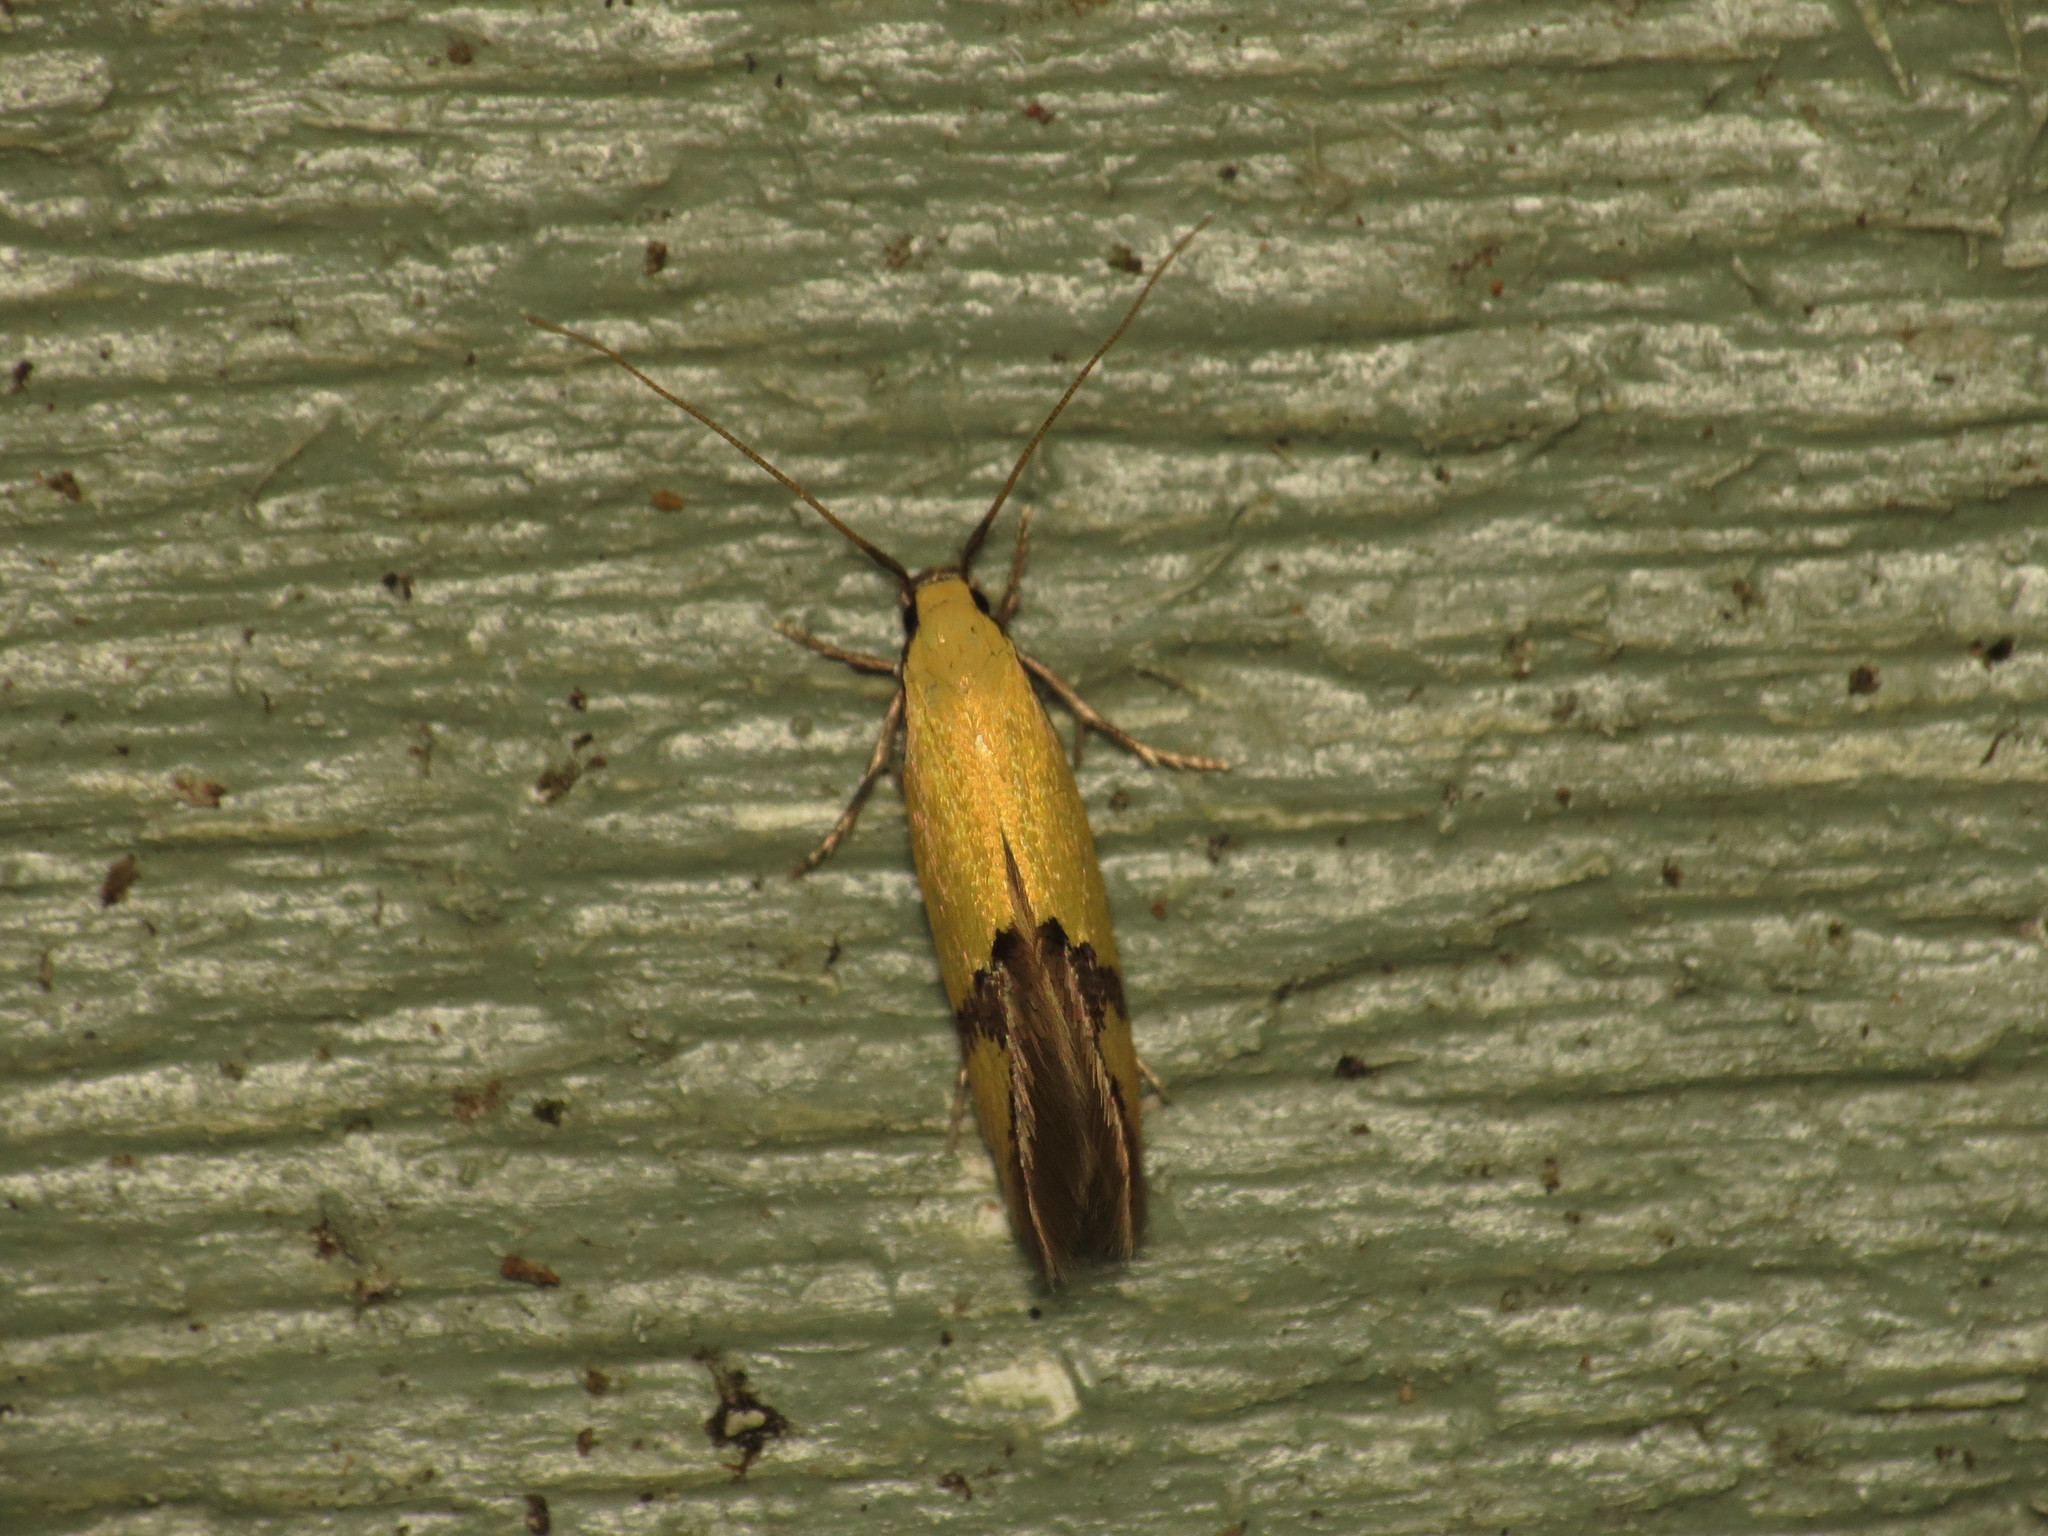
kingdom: Animalia
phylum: Arthropoda
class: Insecta
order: Lepidoptera
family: Tineidae
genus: Opogona
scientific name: Opogona stereodyta
